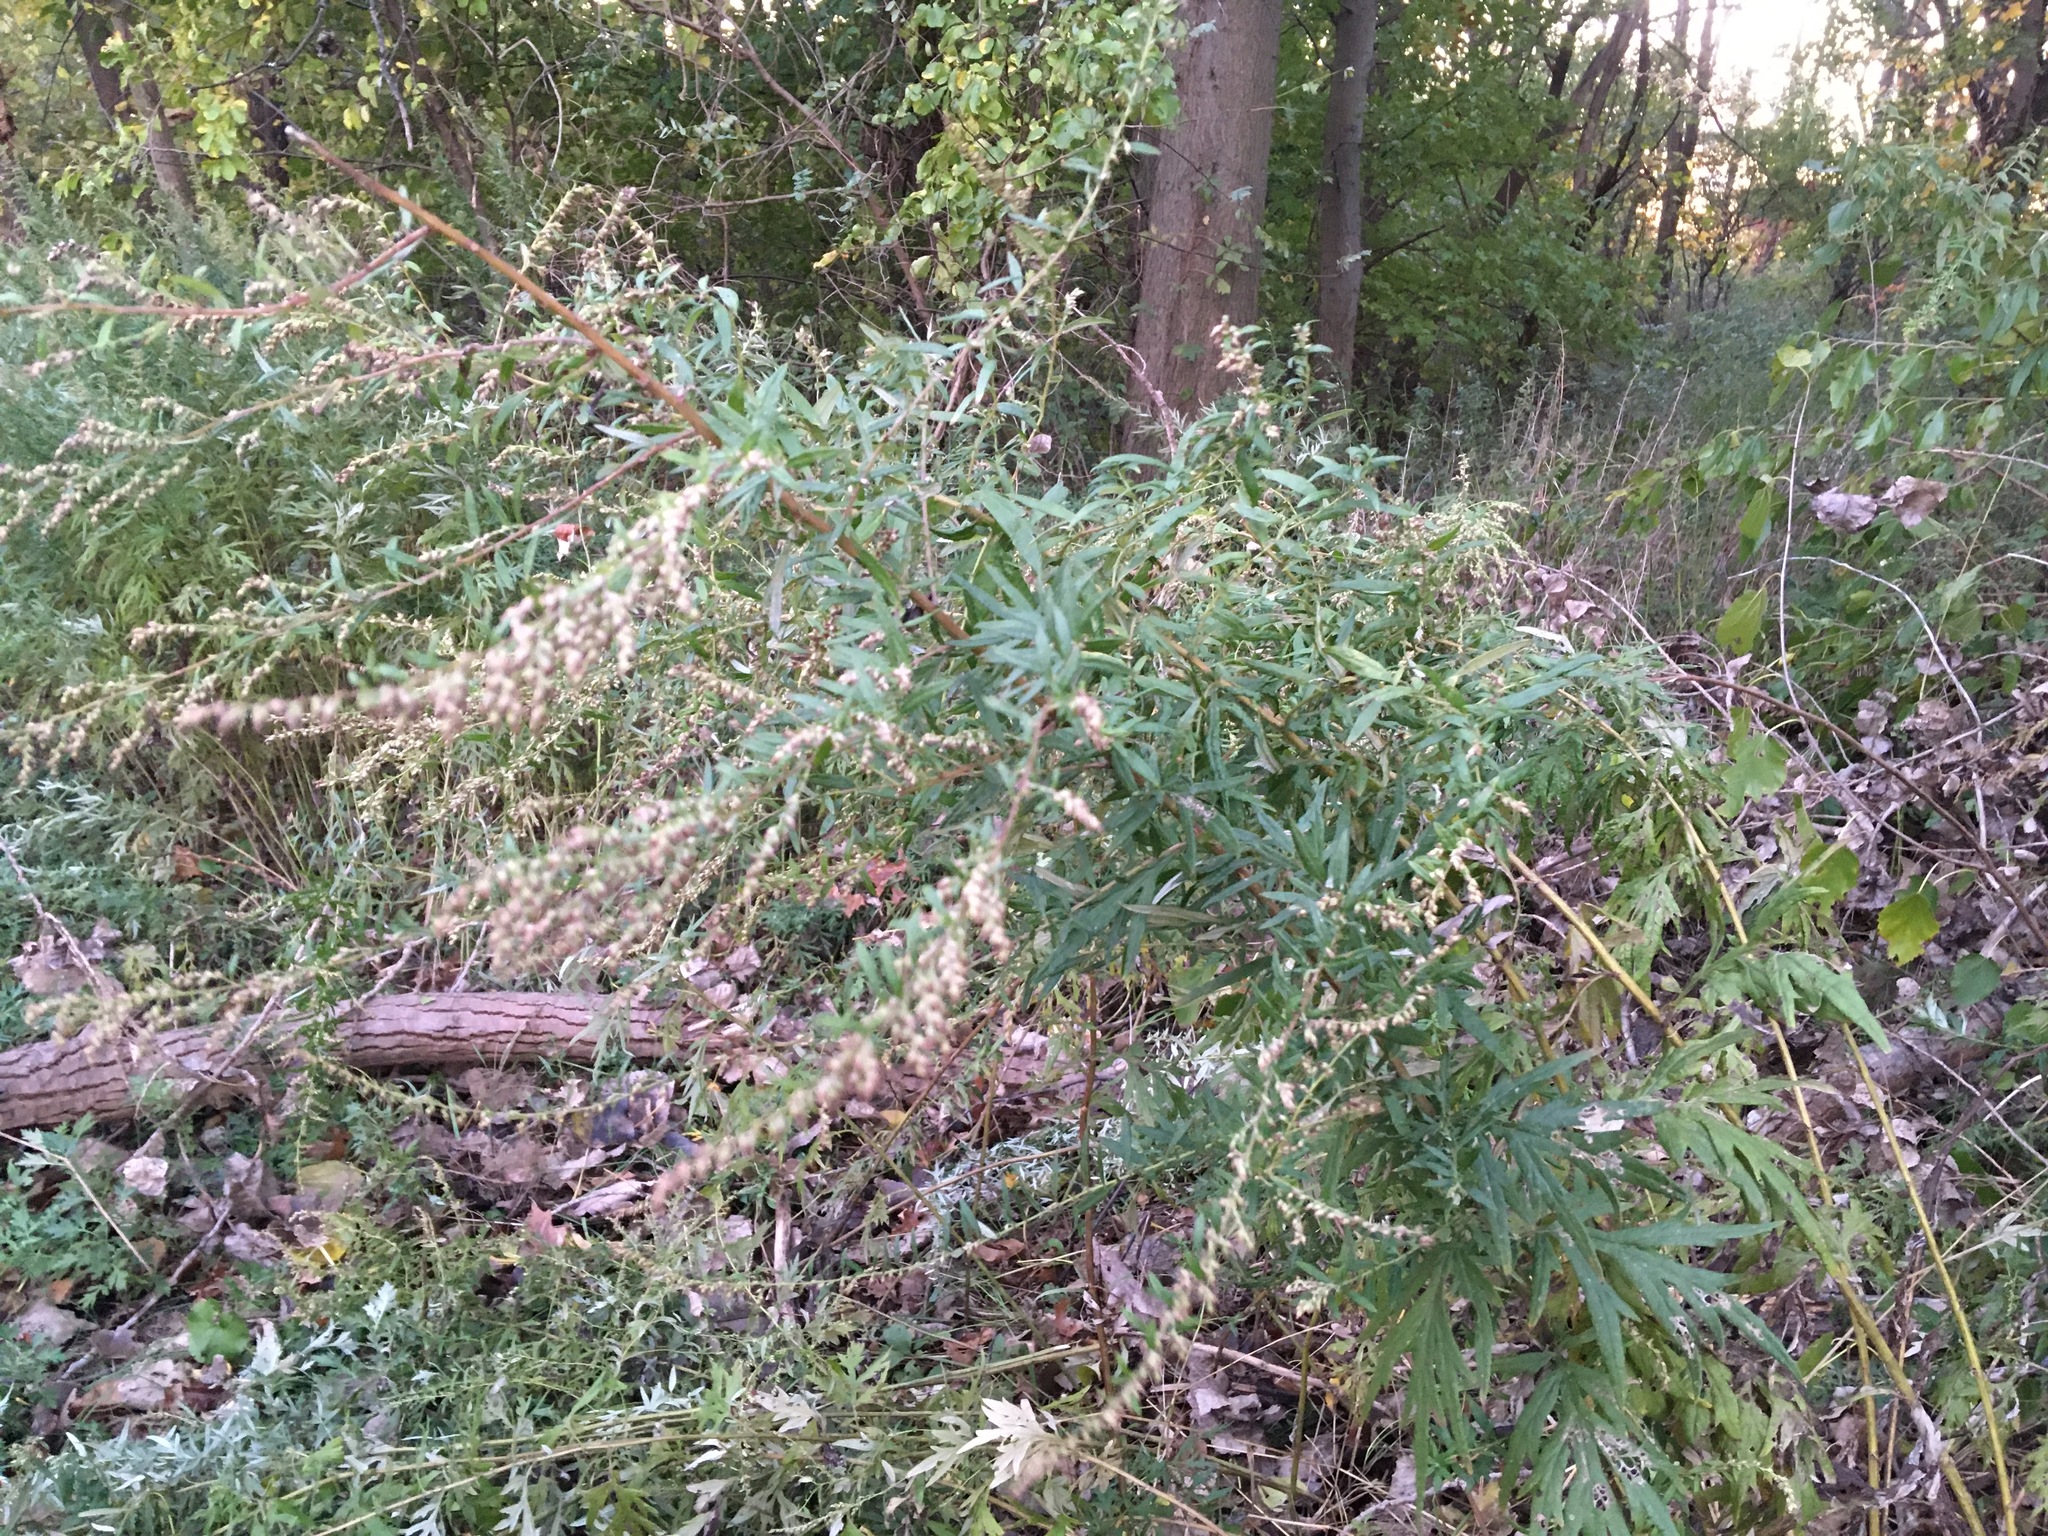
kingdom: Plantae
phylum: Tracheophyta
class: Magnoliopsida
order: Asterales
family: Asteraceae
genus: Artemisia
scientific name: Artemisia vulgaris
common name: Mugwort
